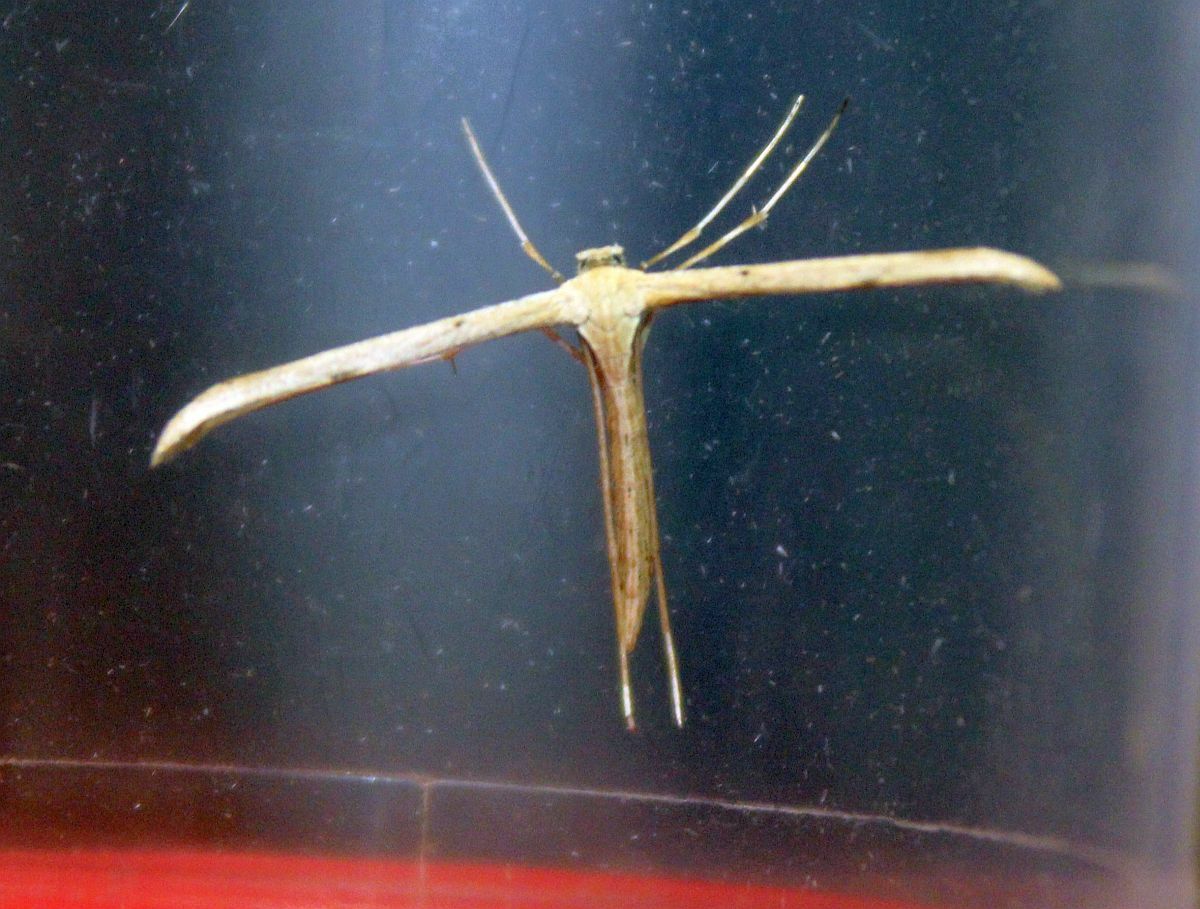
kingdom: Animalia
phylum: Arthropoda
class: Insecta
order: Lepidoptera
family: Pterophoridae
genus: Emmelina
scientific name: Emmelina monodactyla
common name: Common plume
